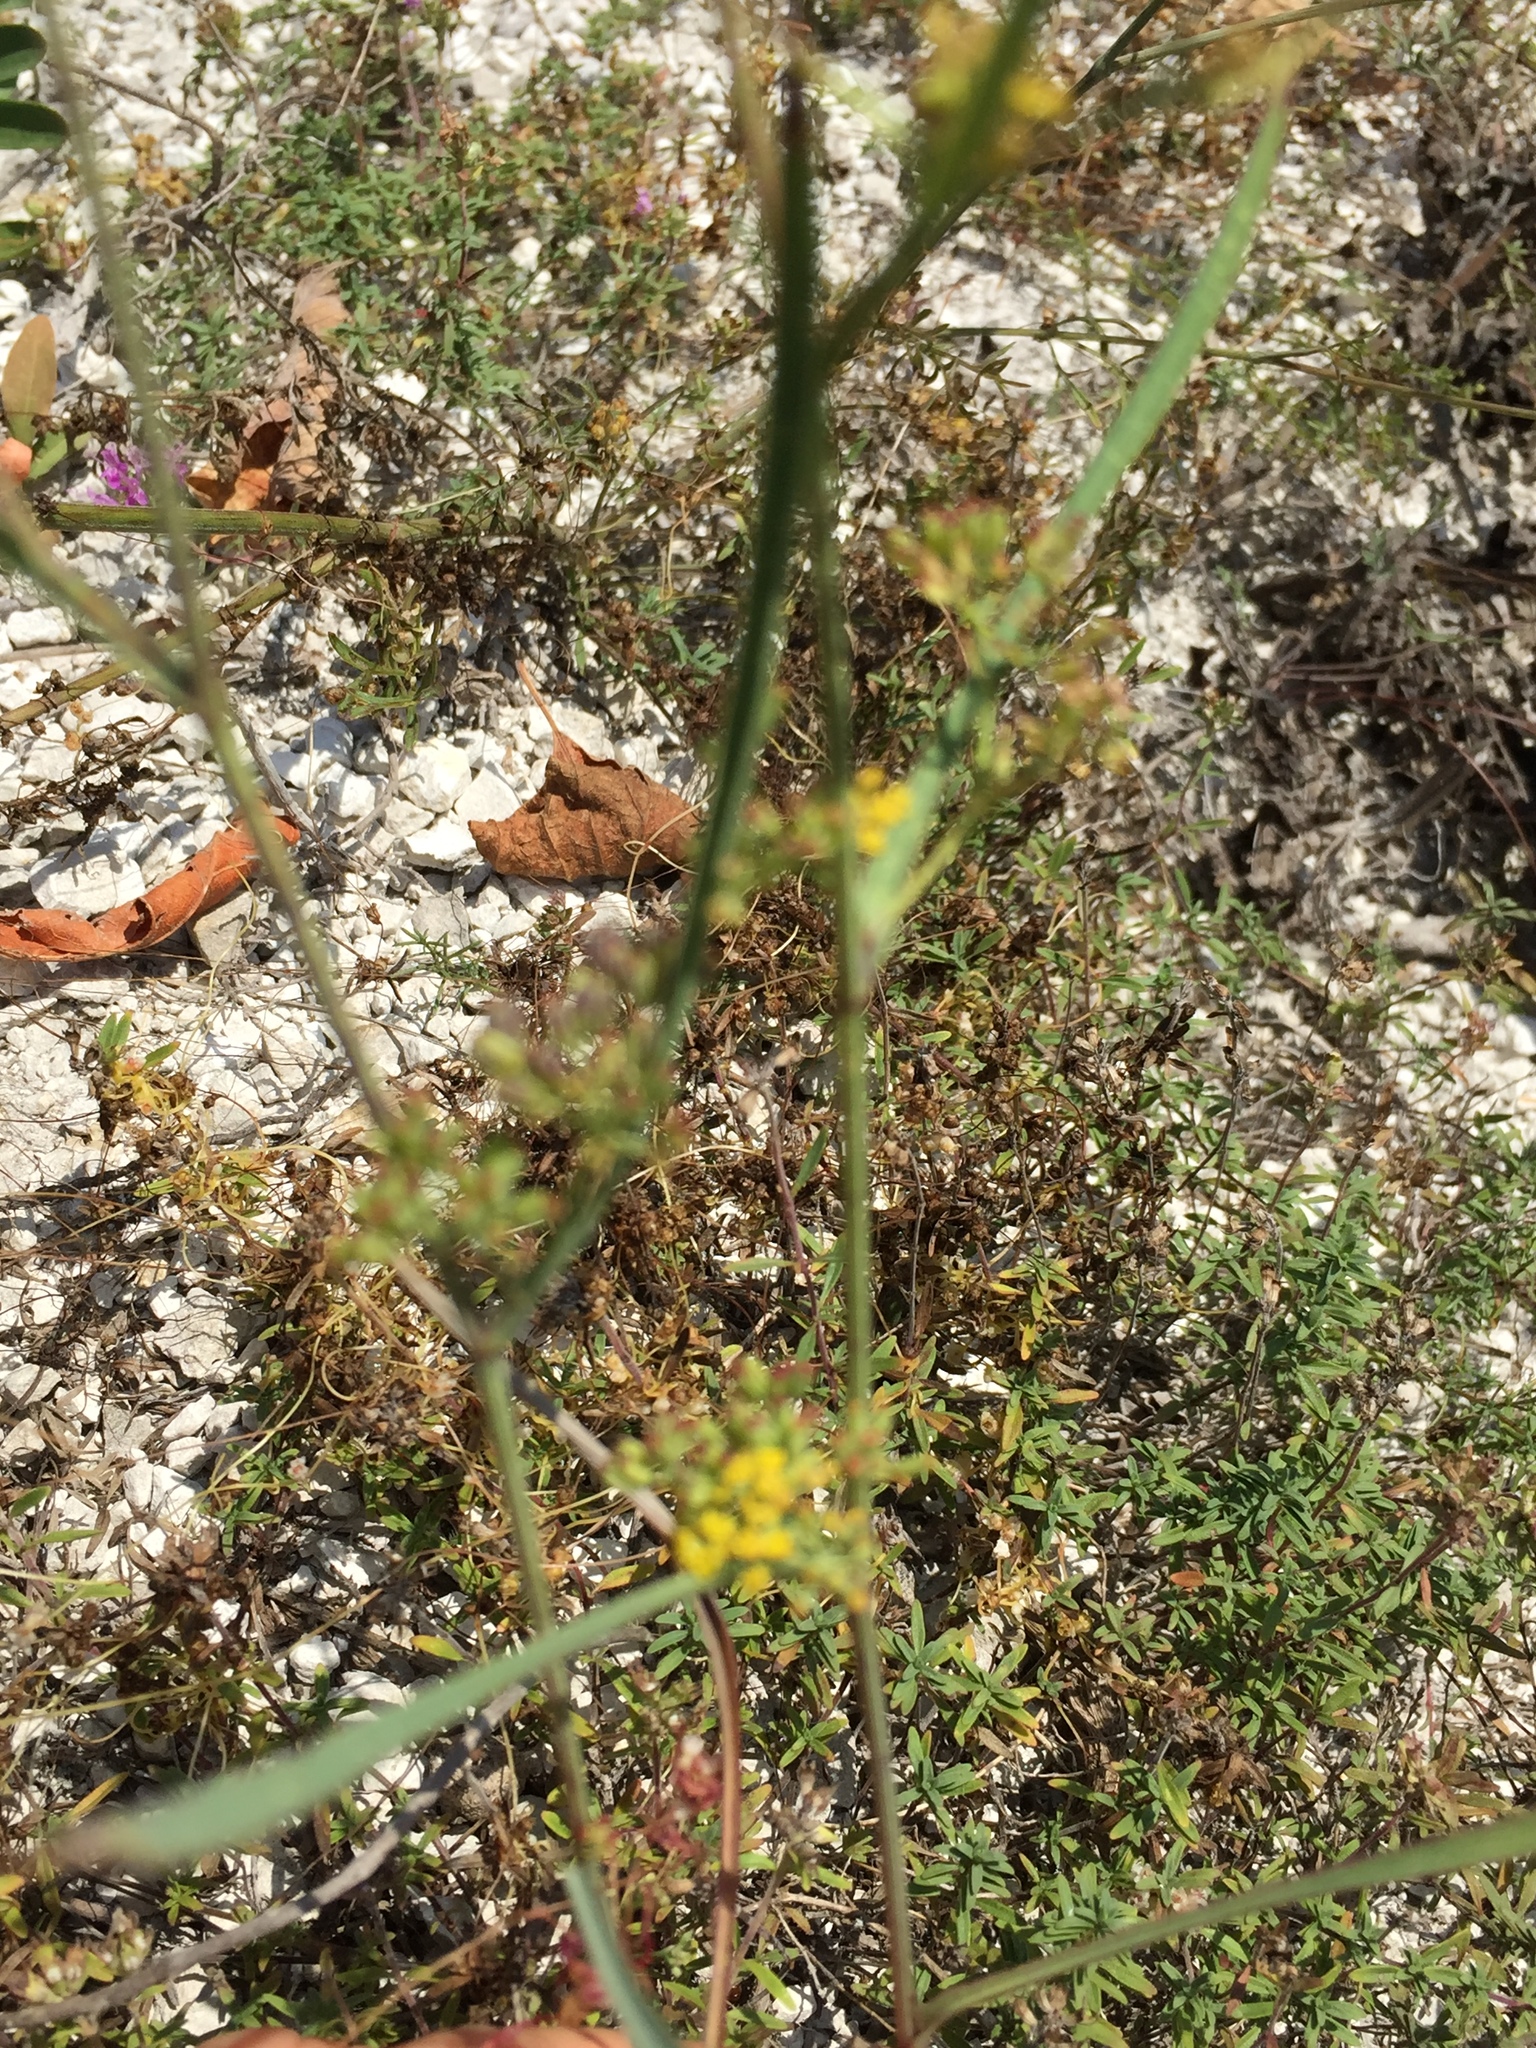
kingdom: Plantae
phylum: Tracheophyta
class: Magnoliopsida
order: Apiales
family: Apiaceae
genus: Bupleurum
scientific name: Bupleurum falcatum
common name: Sickle-leaved hare's-ear
